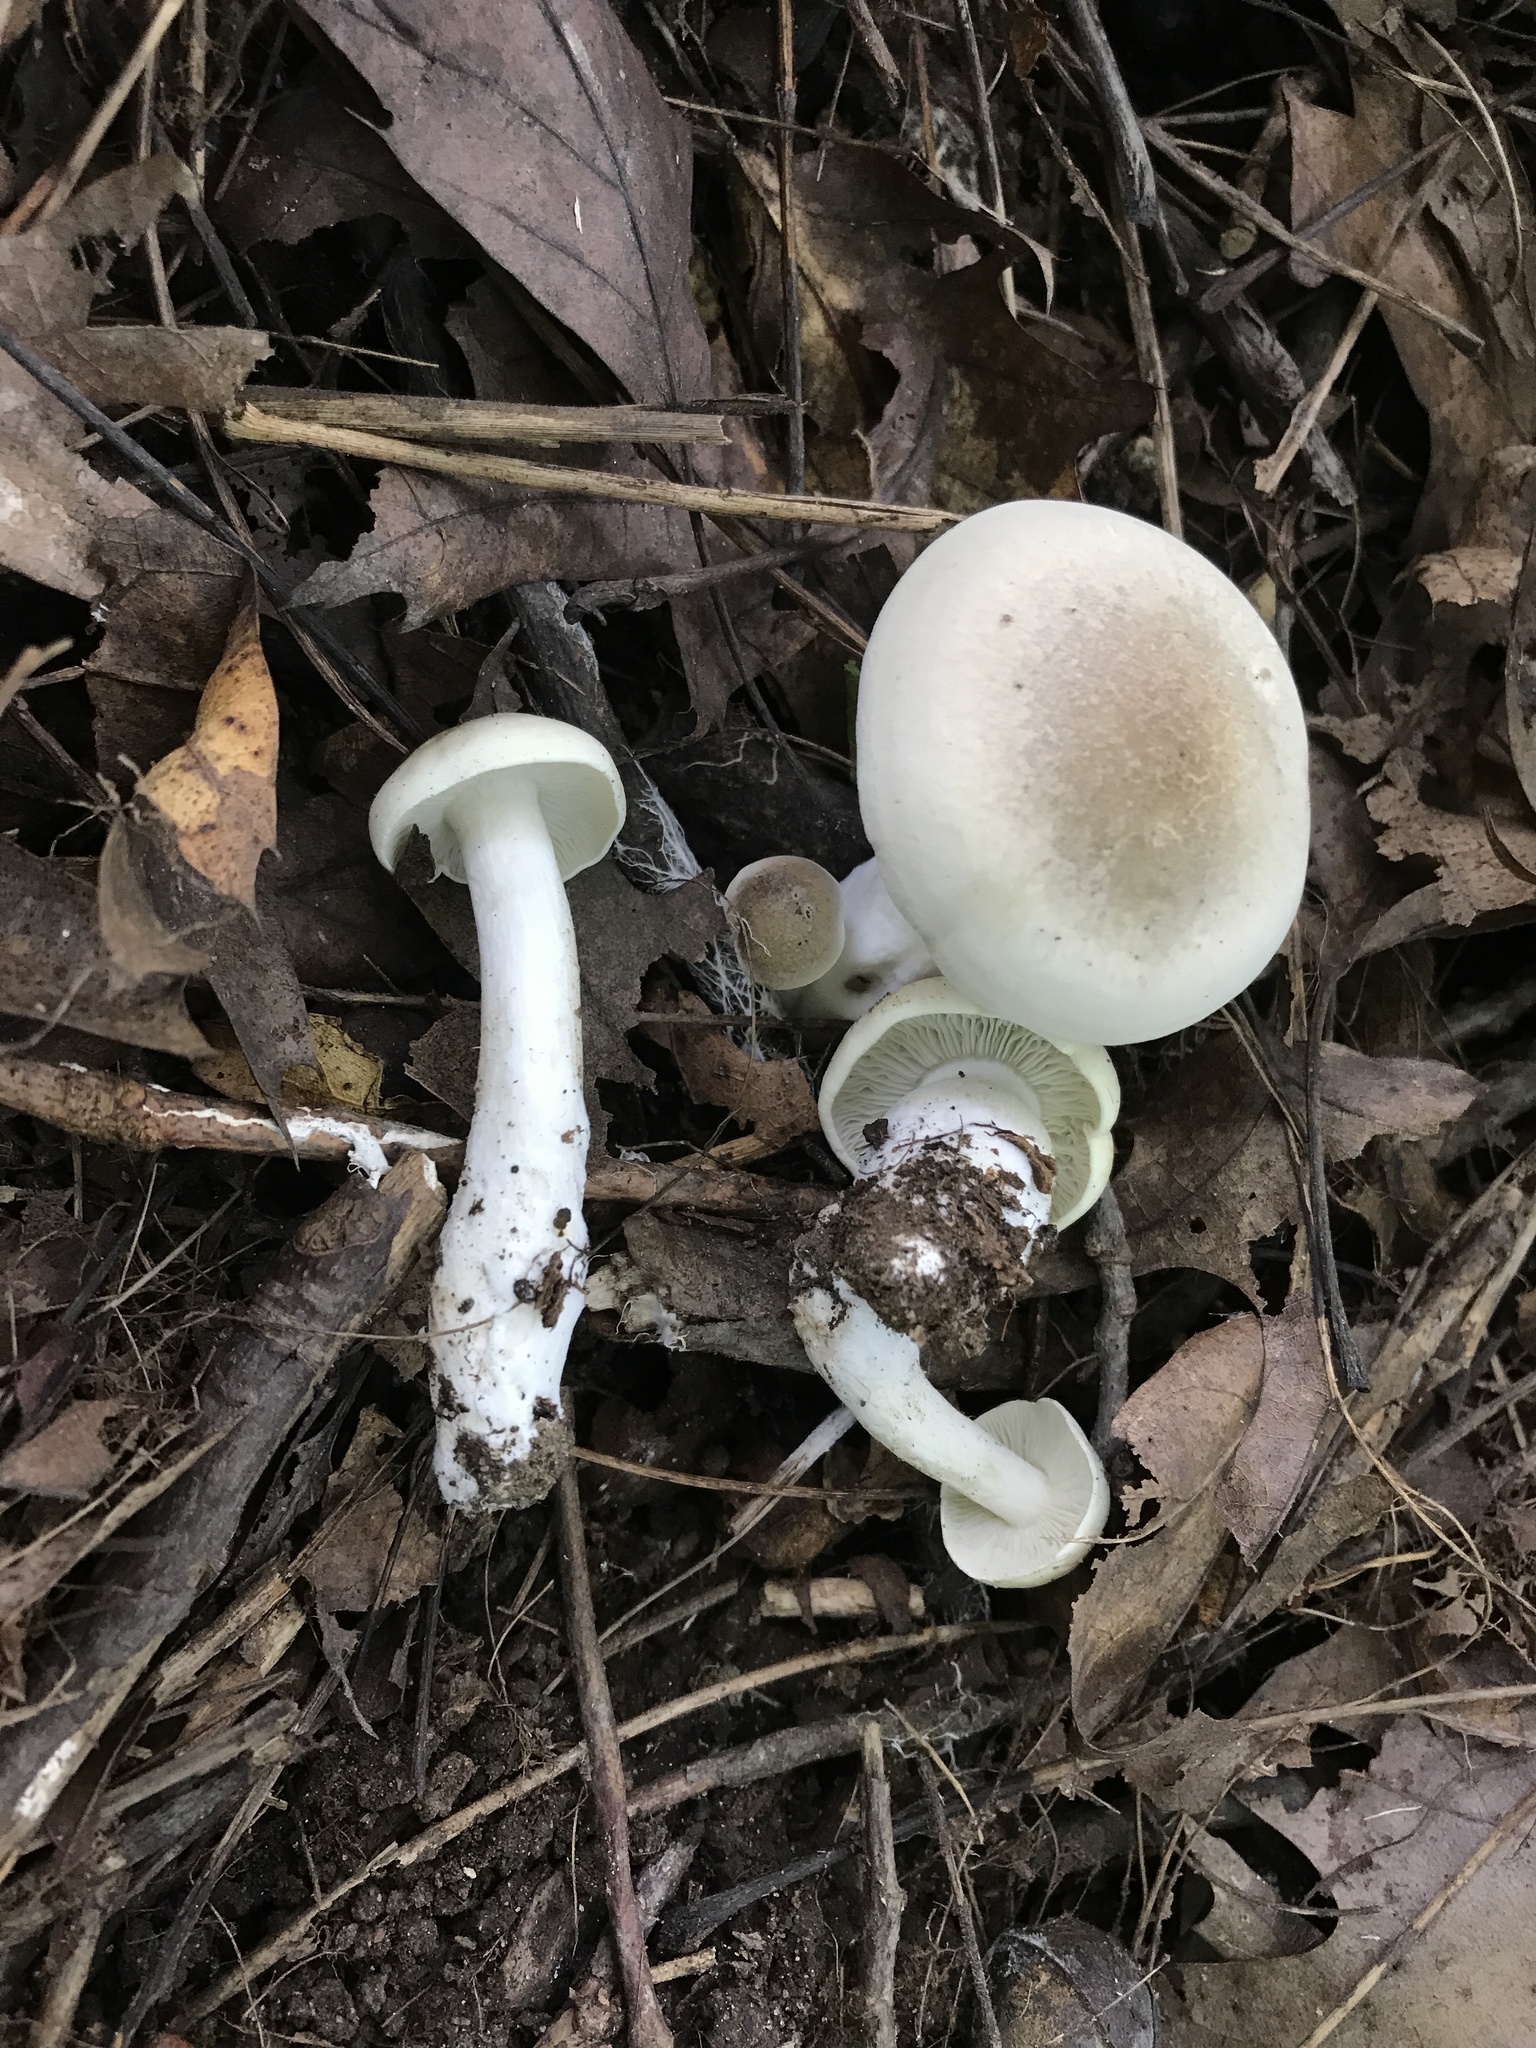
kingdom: Fungi
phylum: Basidiomycota
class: Agaricomycetes
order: Agaricales
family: Tricholomataceae
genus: Tricholoma
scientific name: Tricholoma
